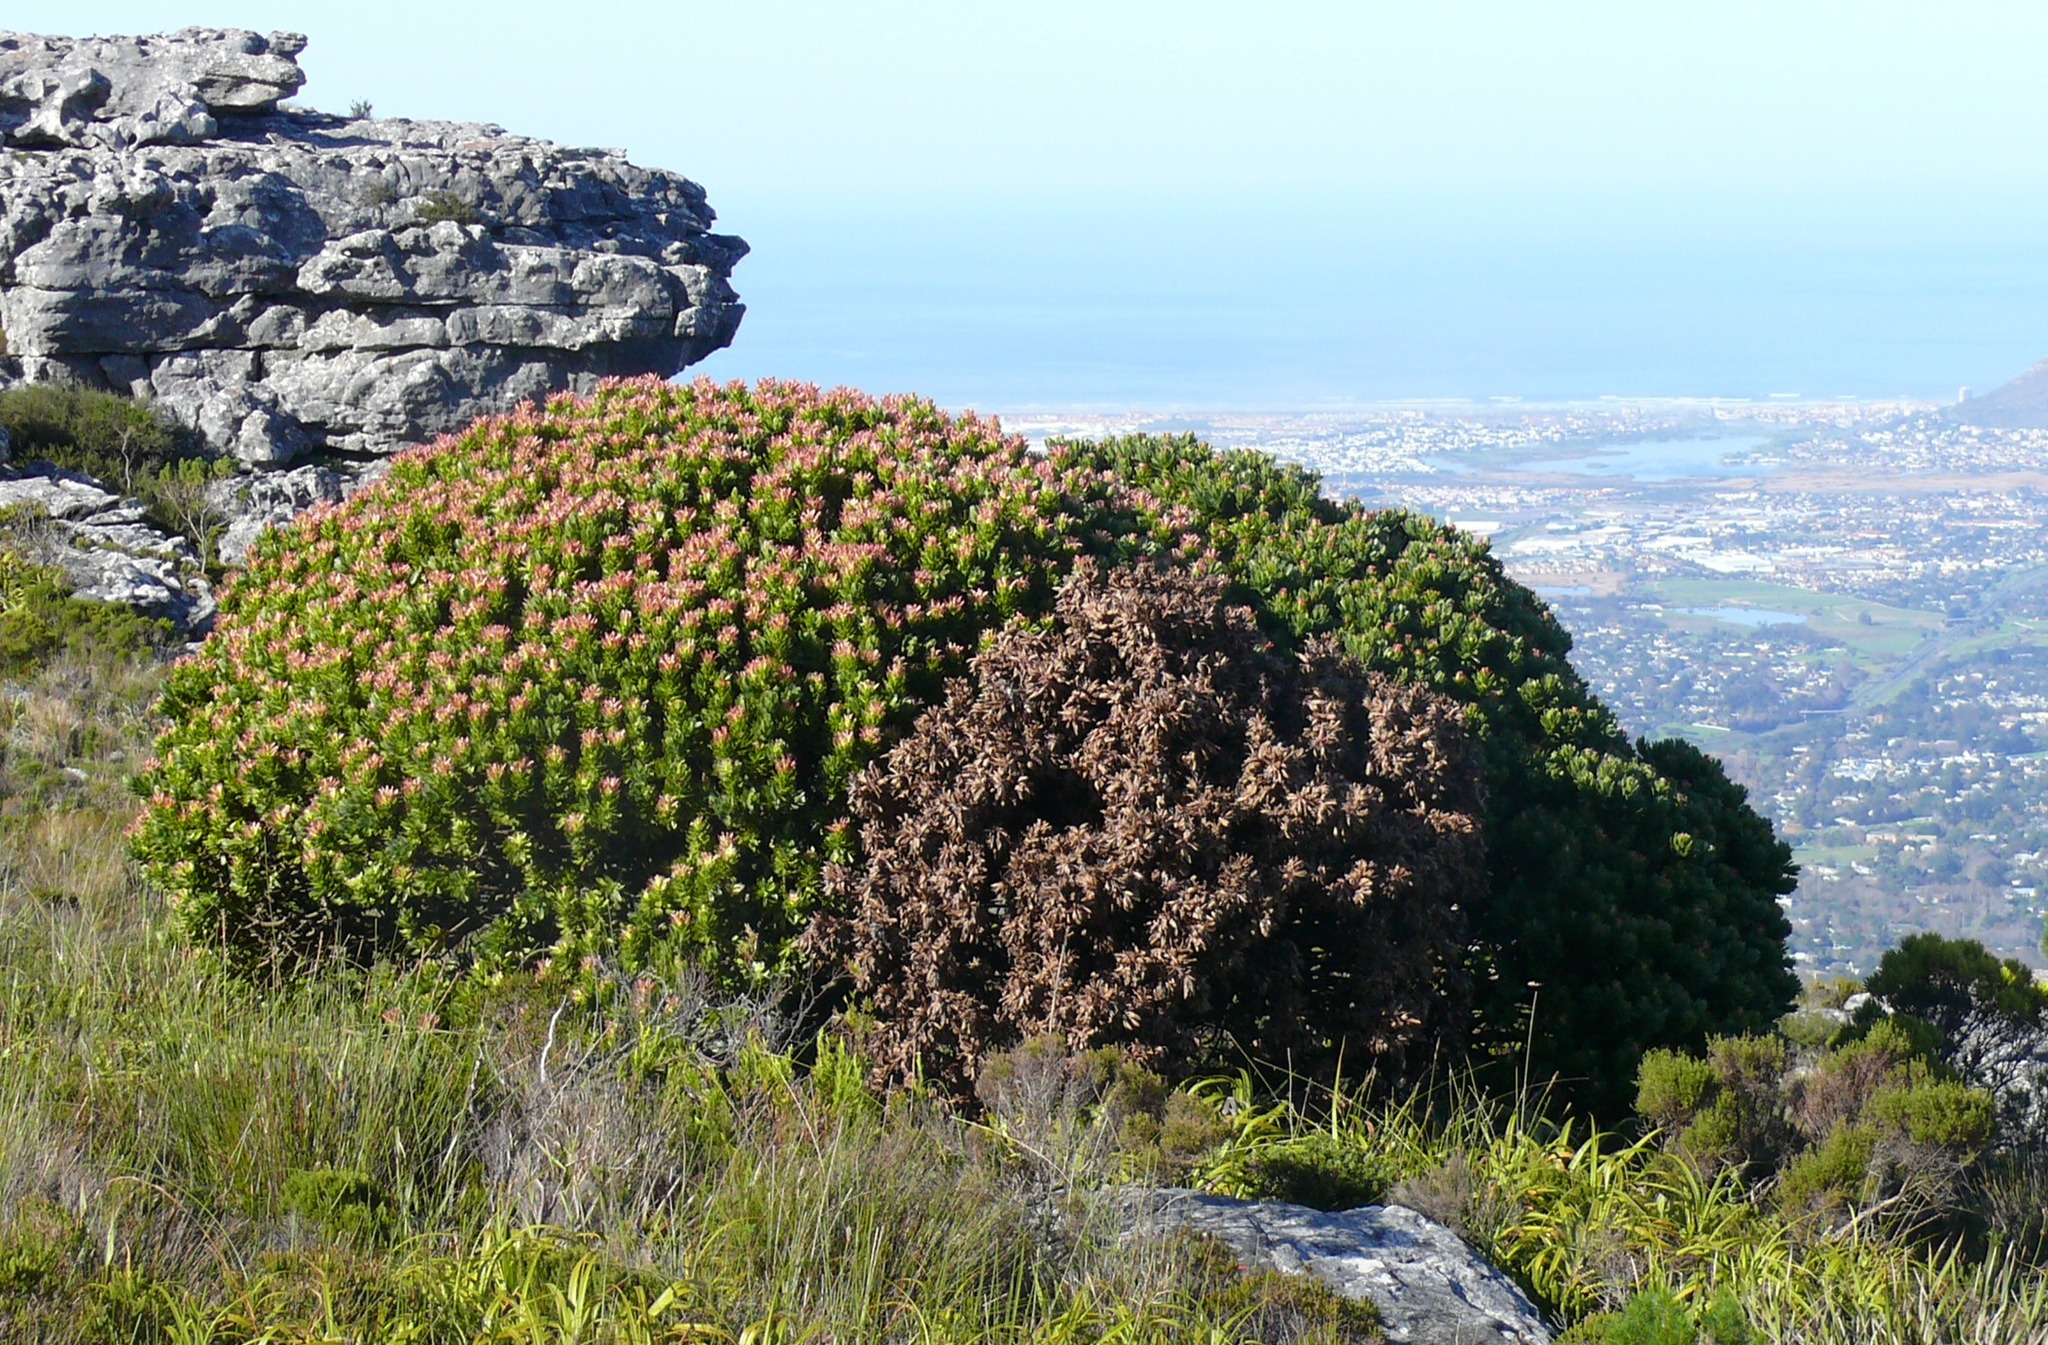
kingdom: Plantae
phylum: Tracheophyta
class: Magnoliopsida
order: Proteales
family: Proteaceae
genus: Mimetes
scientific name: Mimetes fimbriifolius
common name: Fringed bottlebrush
